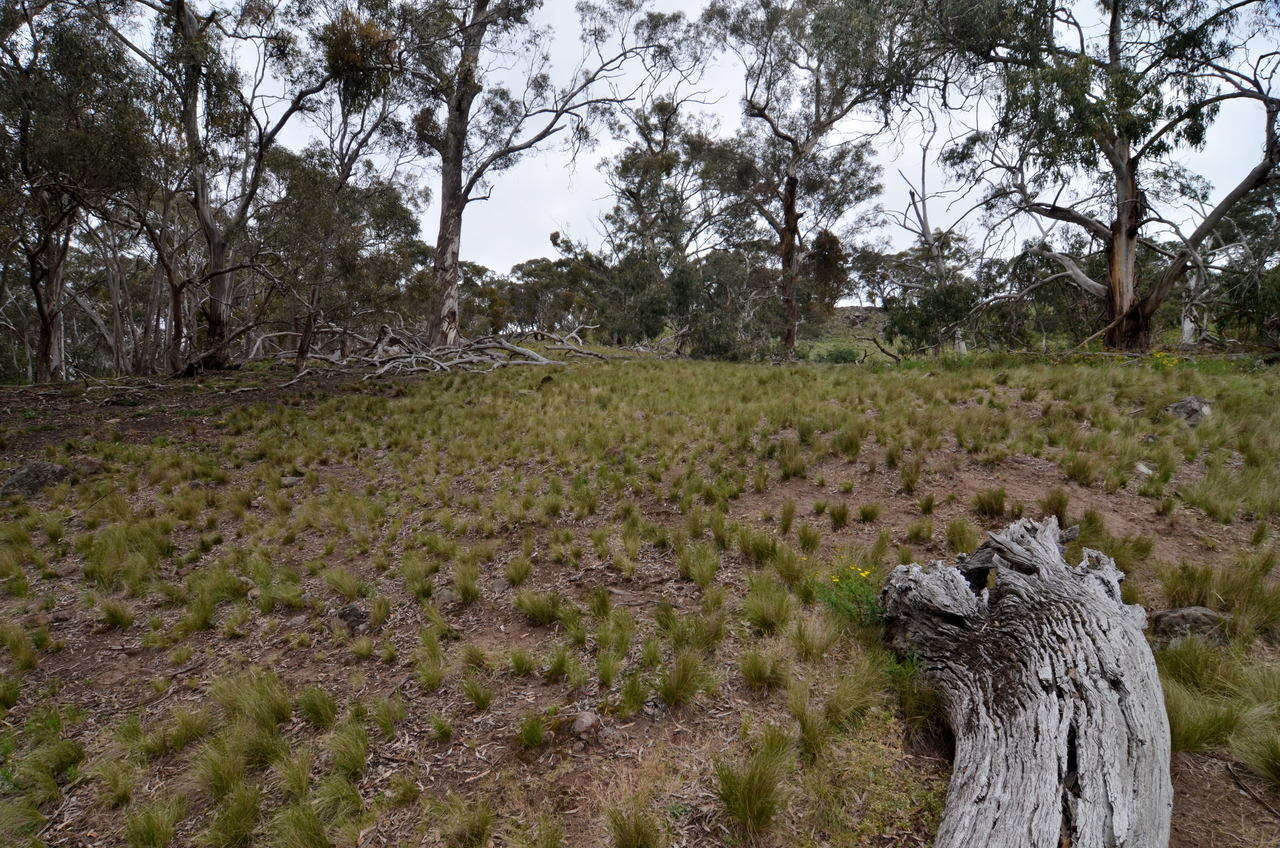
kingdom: Plantae
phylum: Tracheophyta
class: Liliopsida
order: Poales
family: Poaceae
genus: Nassella
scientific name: Nassella trichotoma
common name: Serrated tussock grass
